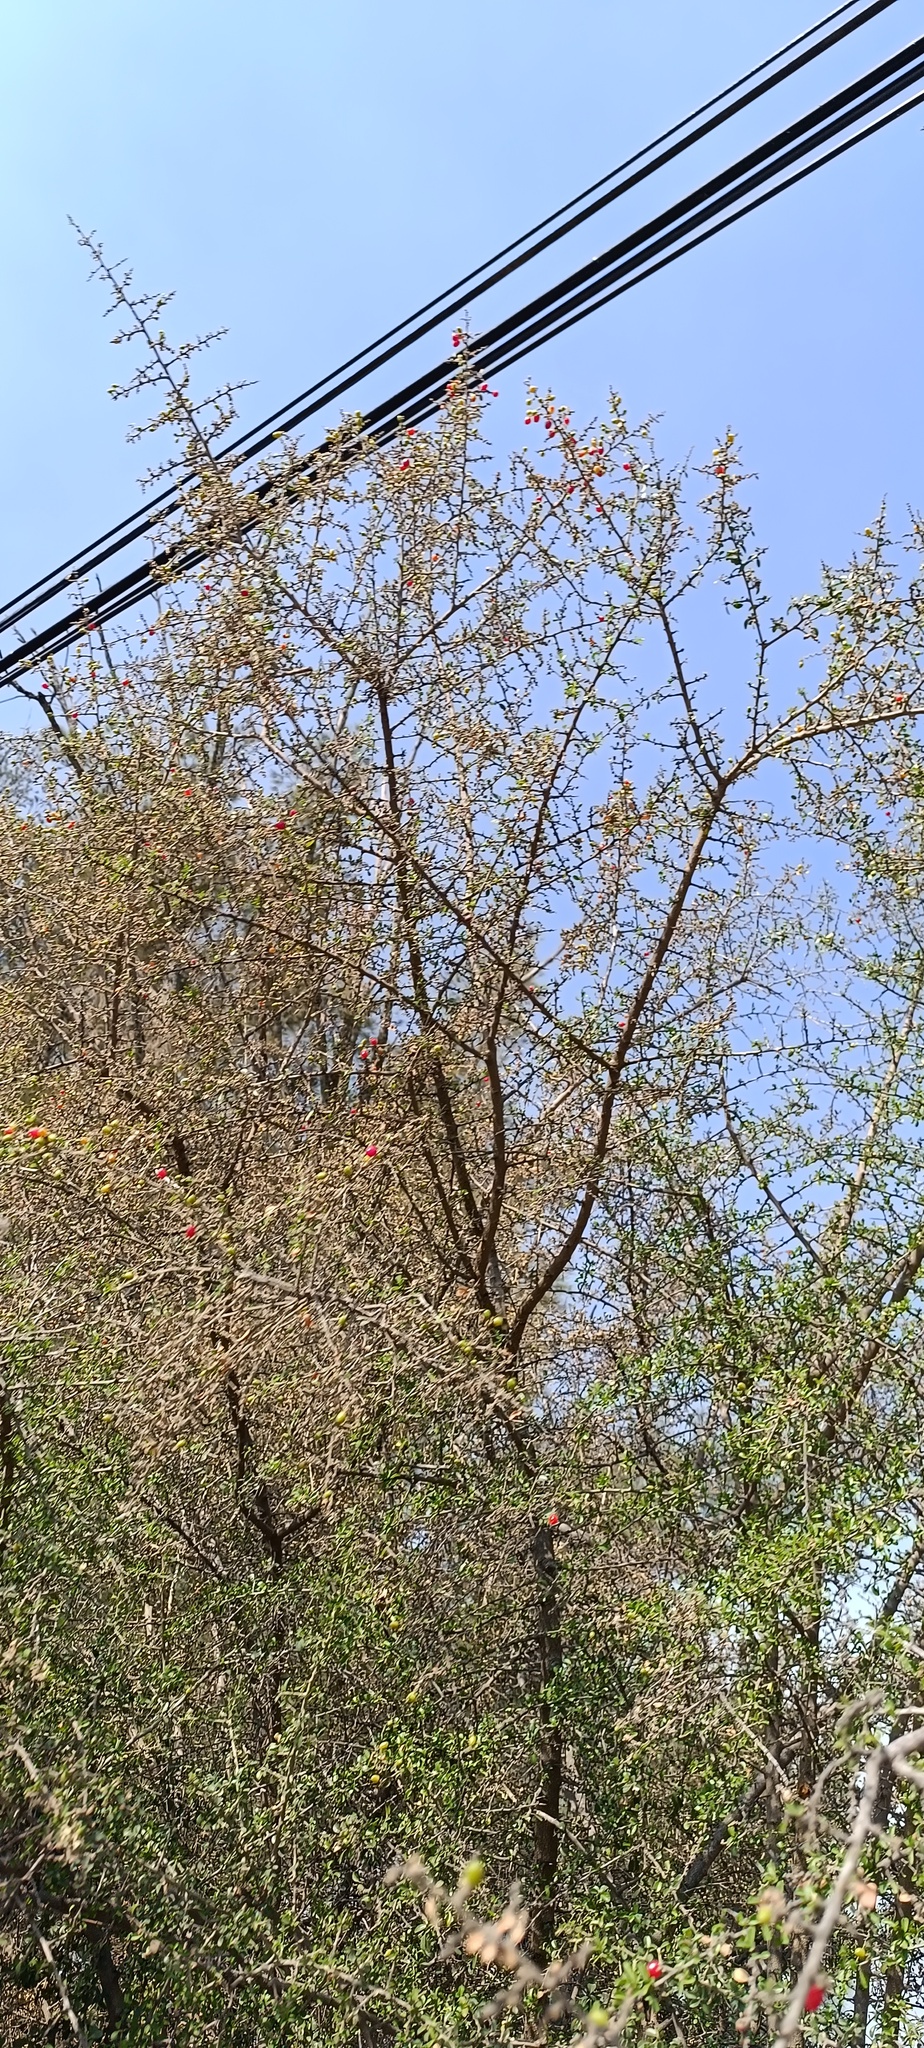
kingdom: Plantae
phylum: Tracheophyta
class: Magnoliopsida
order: Rosales
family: Rhamnaceae
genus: Condalia
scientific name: Condalia velutina
